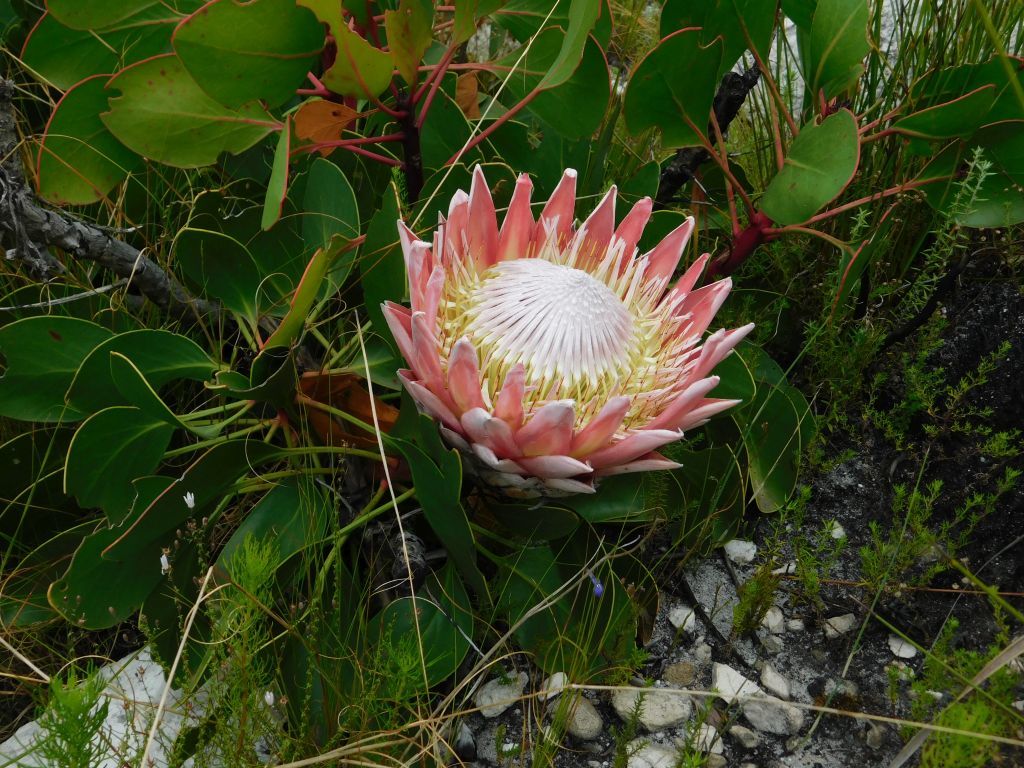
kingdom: Plantae
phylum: Tracheophyta
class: Magnoliopsida
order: Proteales
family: Proteaceae
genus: Protea
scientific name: Protea cynaroides
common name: King protea
